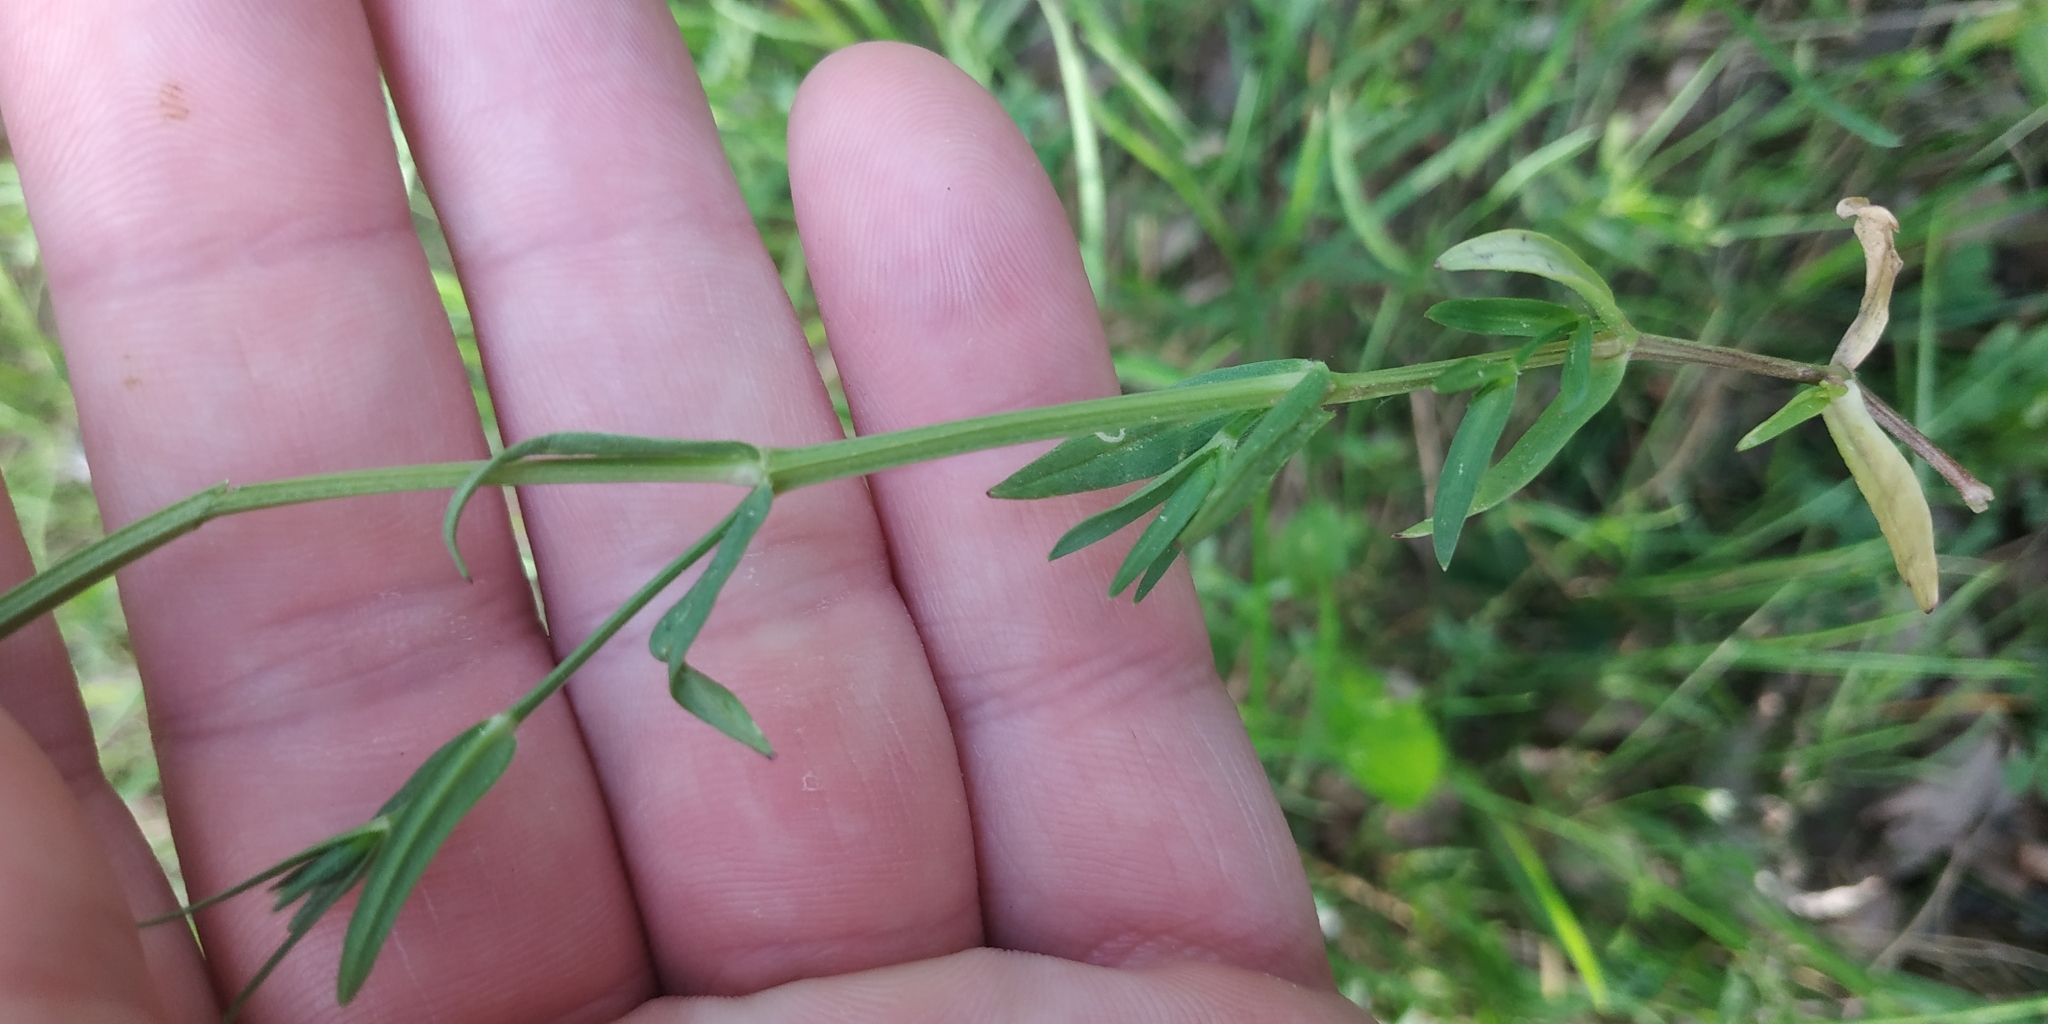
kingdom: Plantae
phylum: Tracheophyta
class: Magnoliopsida
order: Caryophyllales
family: Caryophyllaceae
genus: Stellaria
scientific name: Stellaria graminea
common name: Grass-like starwort
